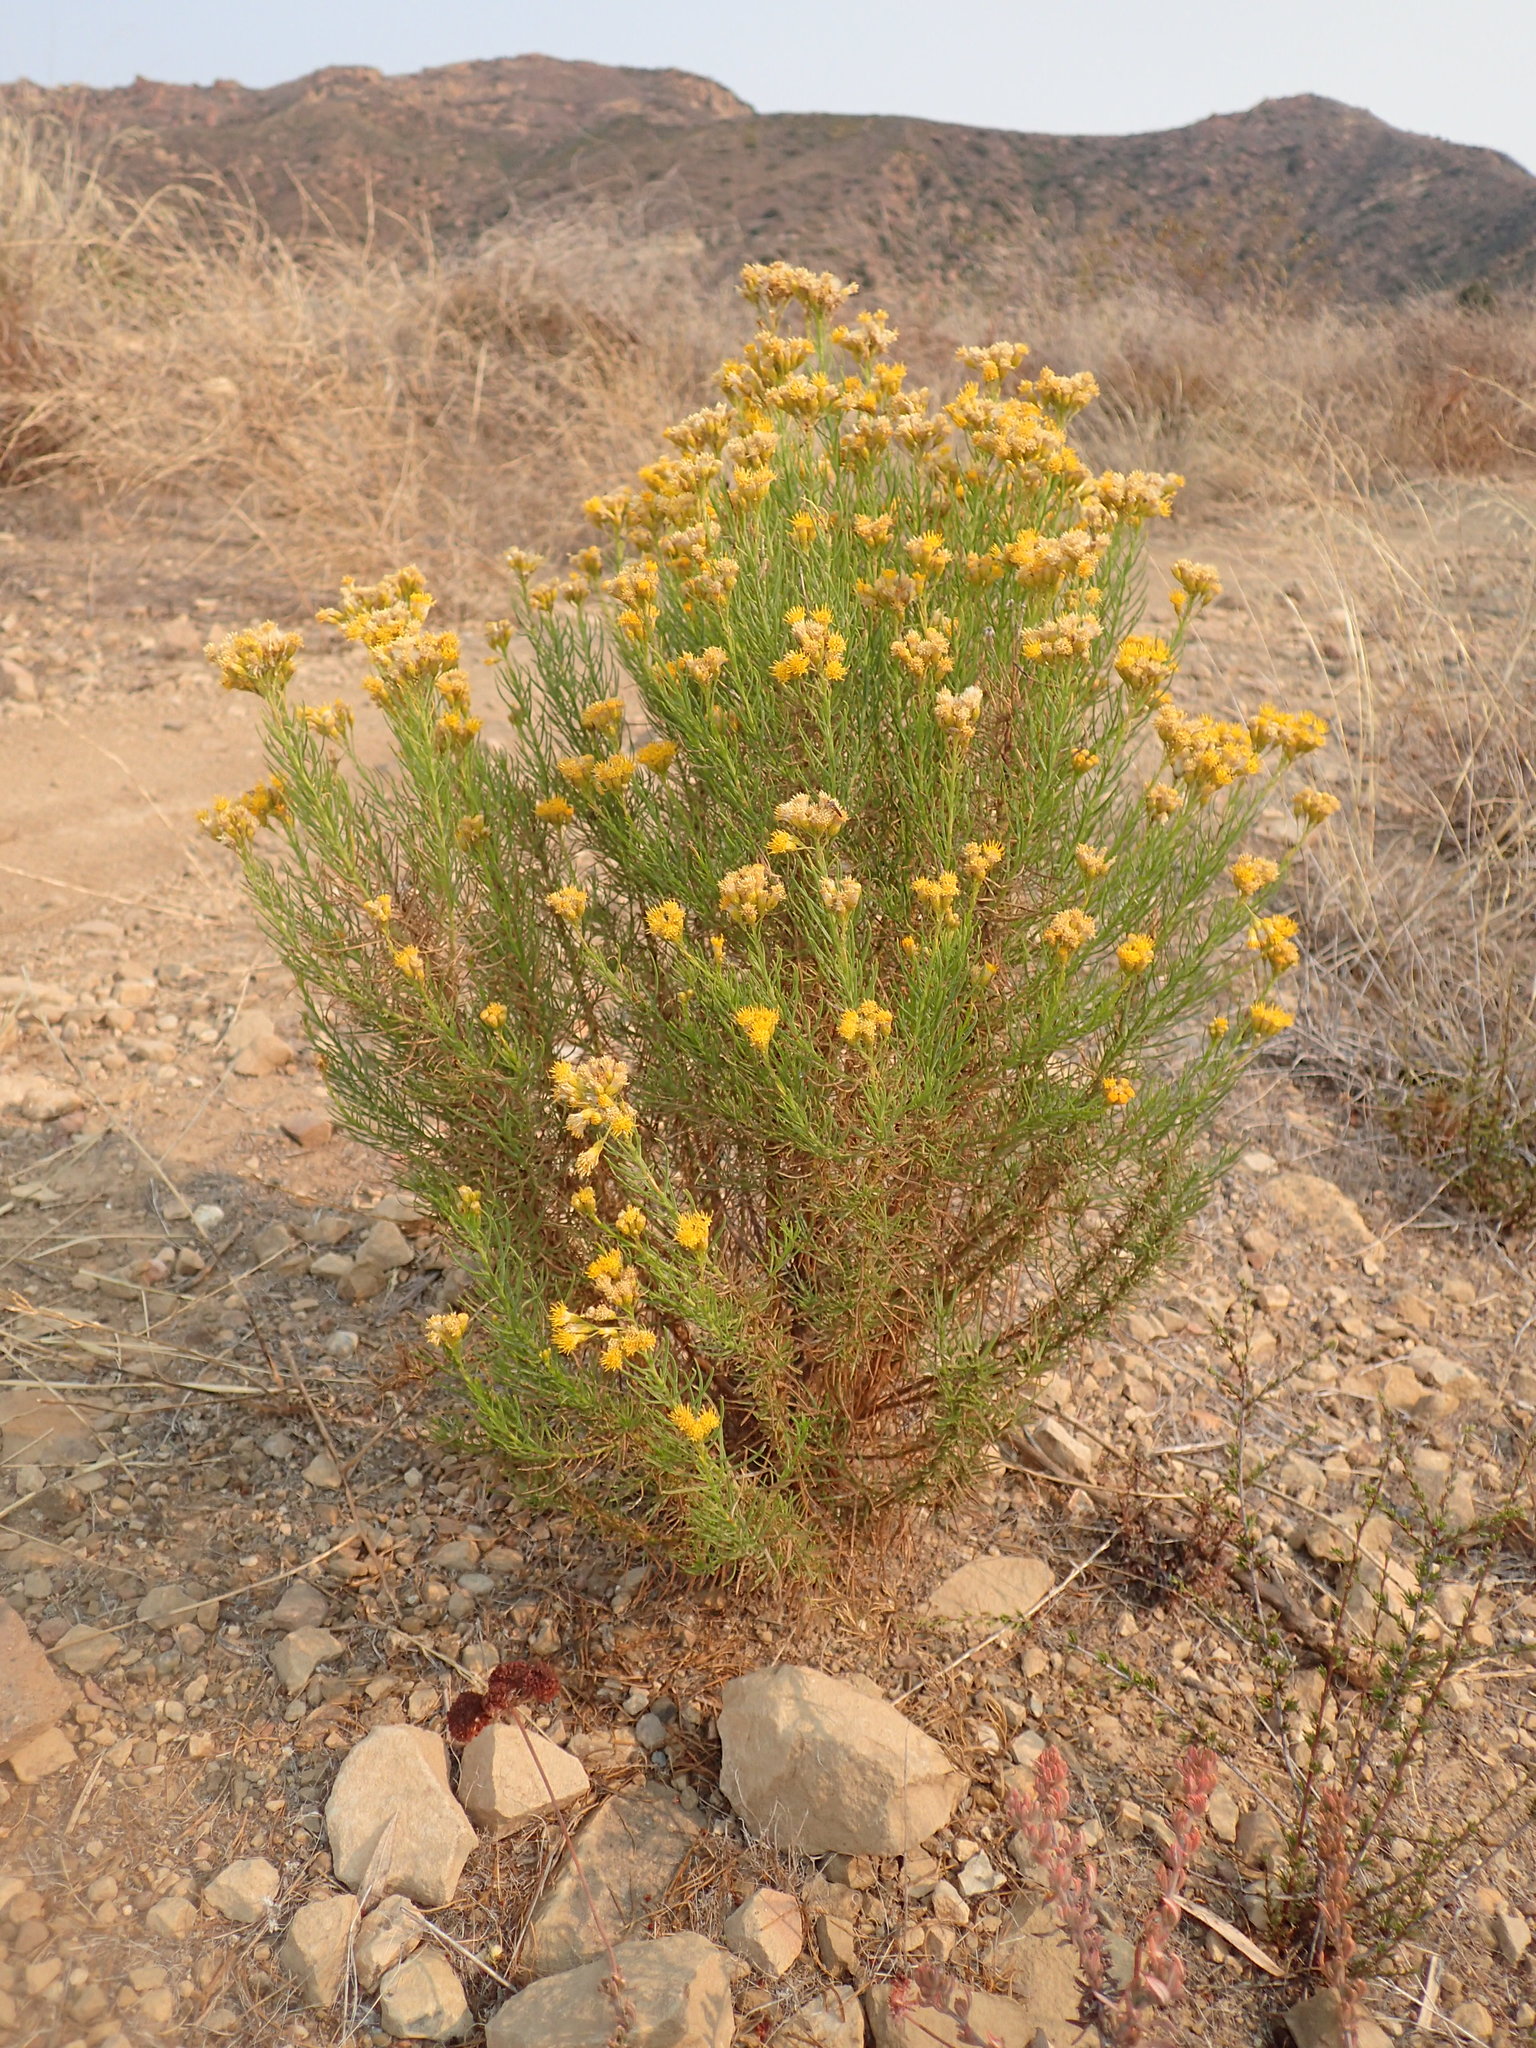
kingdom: Plantae
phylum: Tracheophyta
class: Magnoliopsida
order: Asterales
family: Asteraceae
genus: Ericameria
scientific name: Ericameria arborescens
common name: Goldenfleece
